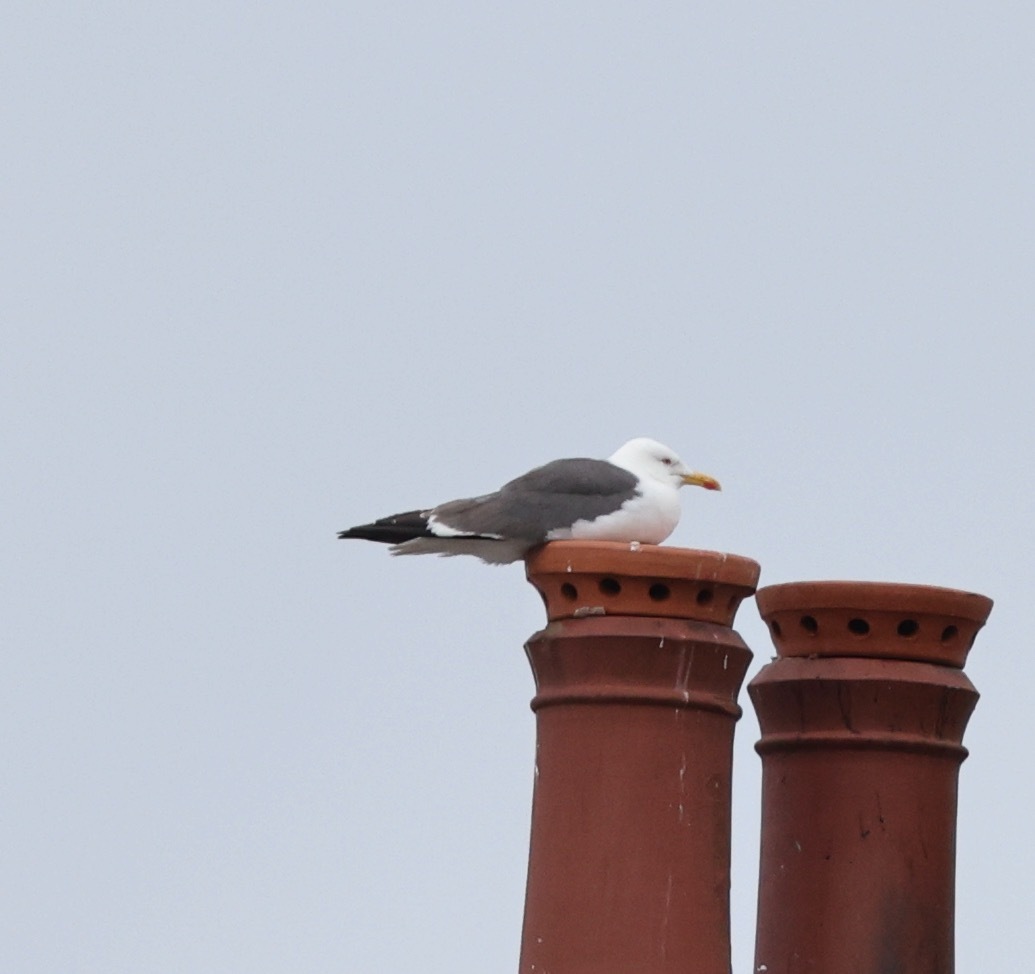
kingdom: Animalia
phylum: Chordata
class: Aves
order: Charadriiformes
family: Laridae
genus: Larus
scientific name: Larus fuscus
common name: Lesser black-backed gull
